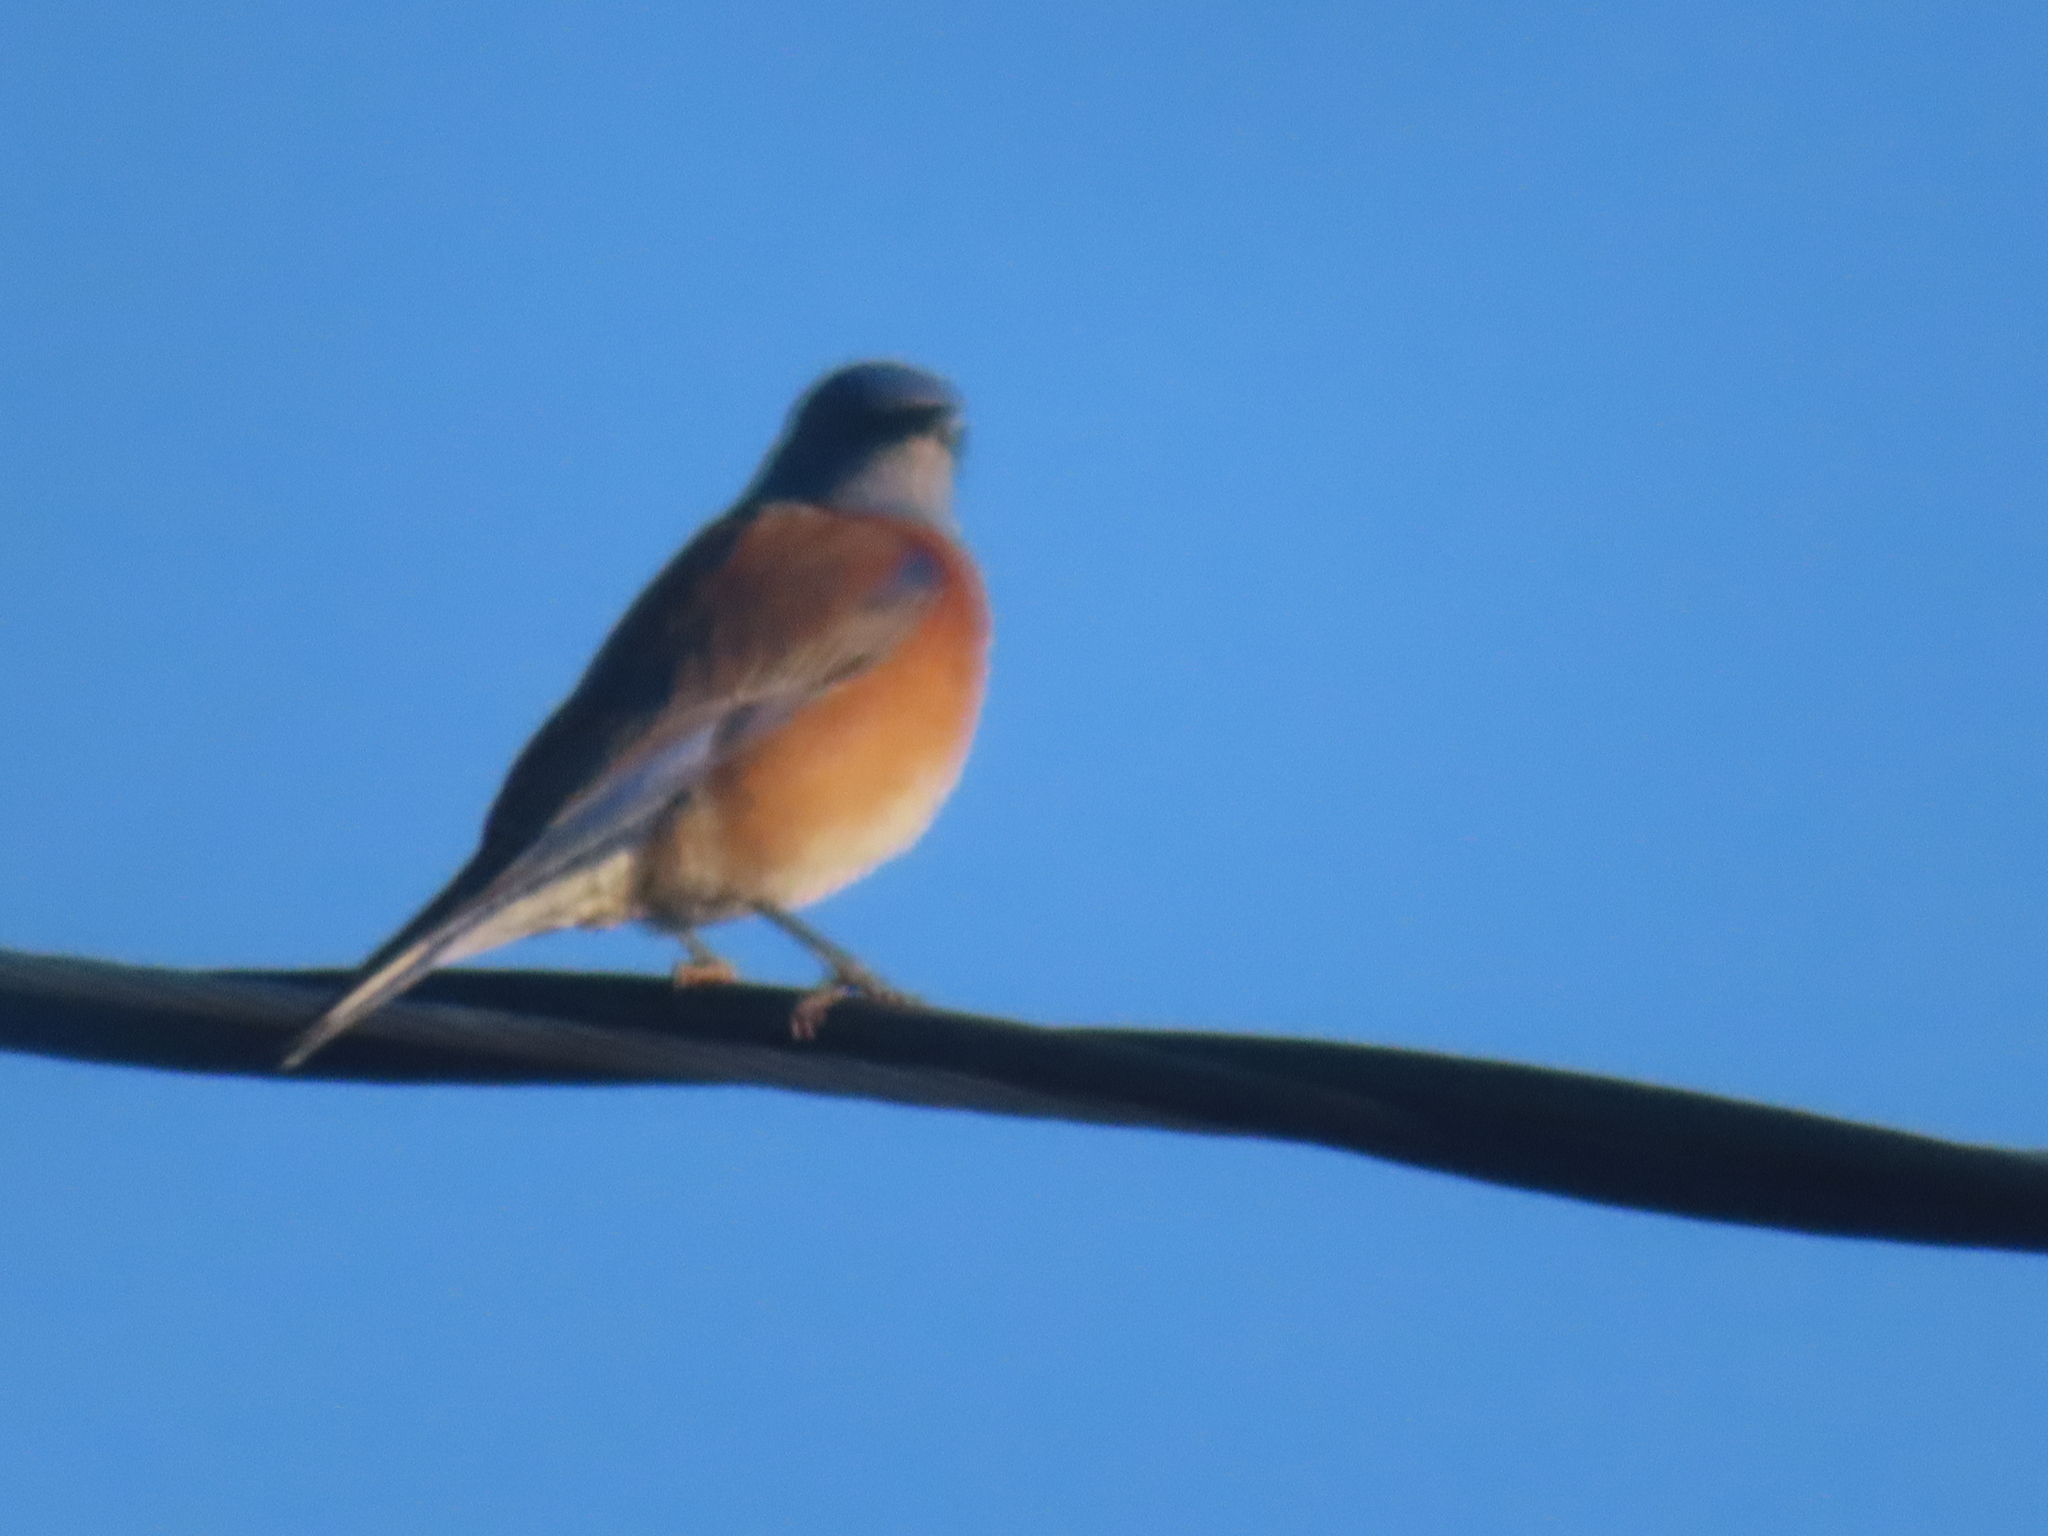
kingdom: Animalia
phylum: Chordata
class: Aves
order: Passeriformes
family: Turdidae
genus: Sialia
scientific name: Sialia mexicana
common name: Western bluebird
